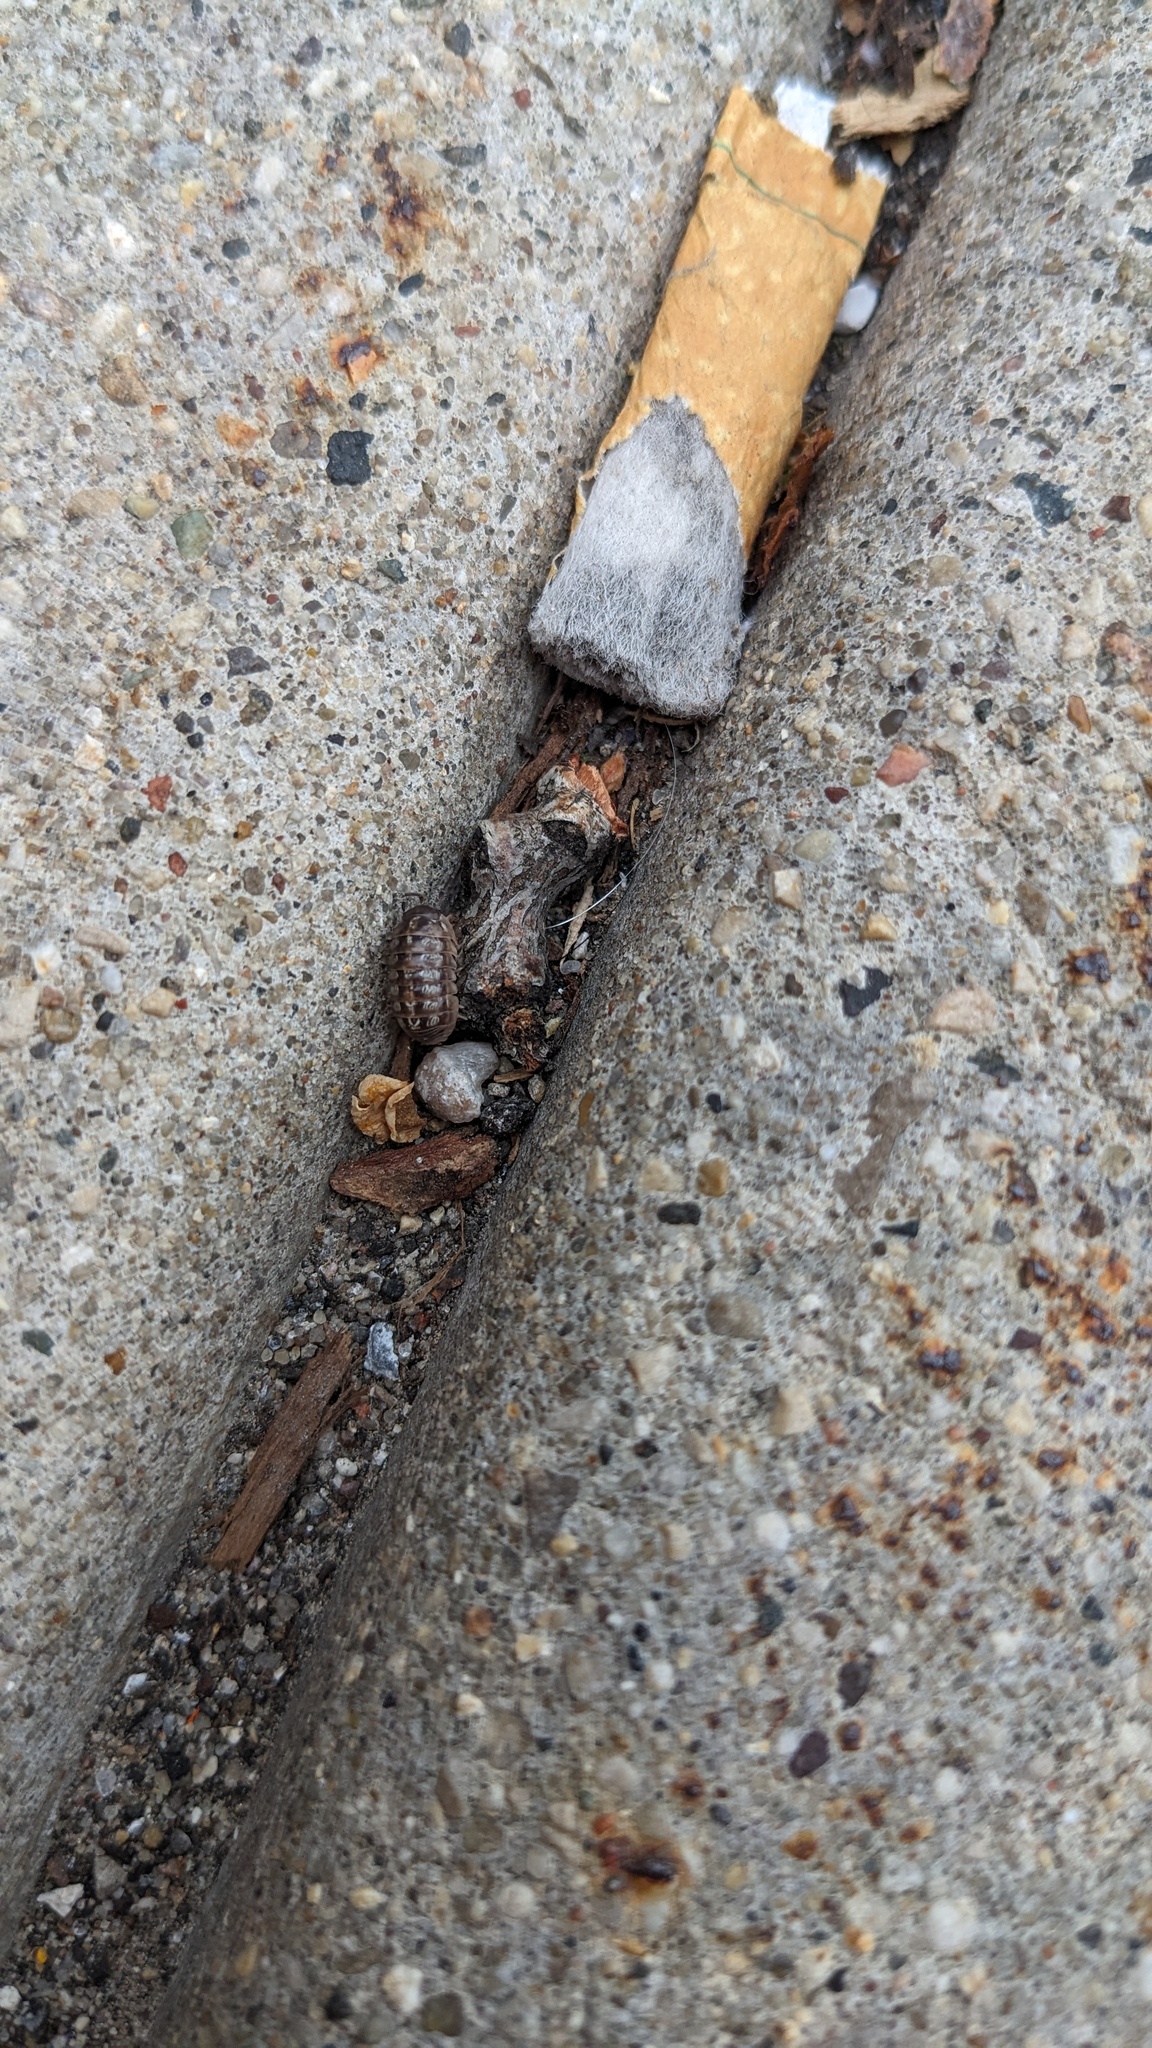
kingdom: Animalia
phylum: Arthropoda
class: Malacostraca
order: Isopoda
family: Armadillidiidae
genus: Armadillidium
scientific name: Armadillidium vulgare
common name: Common pill woodlouse
